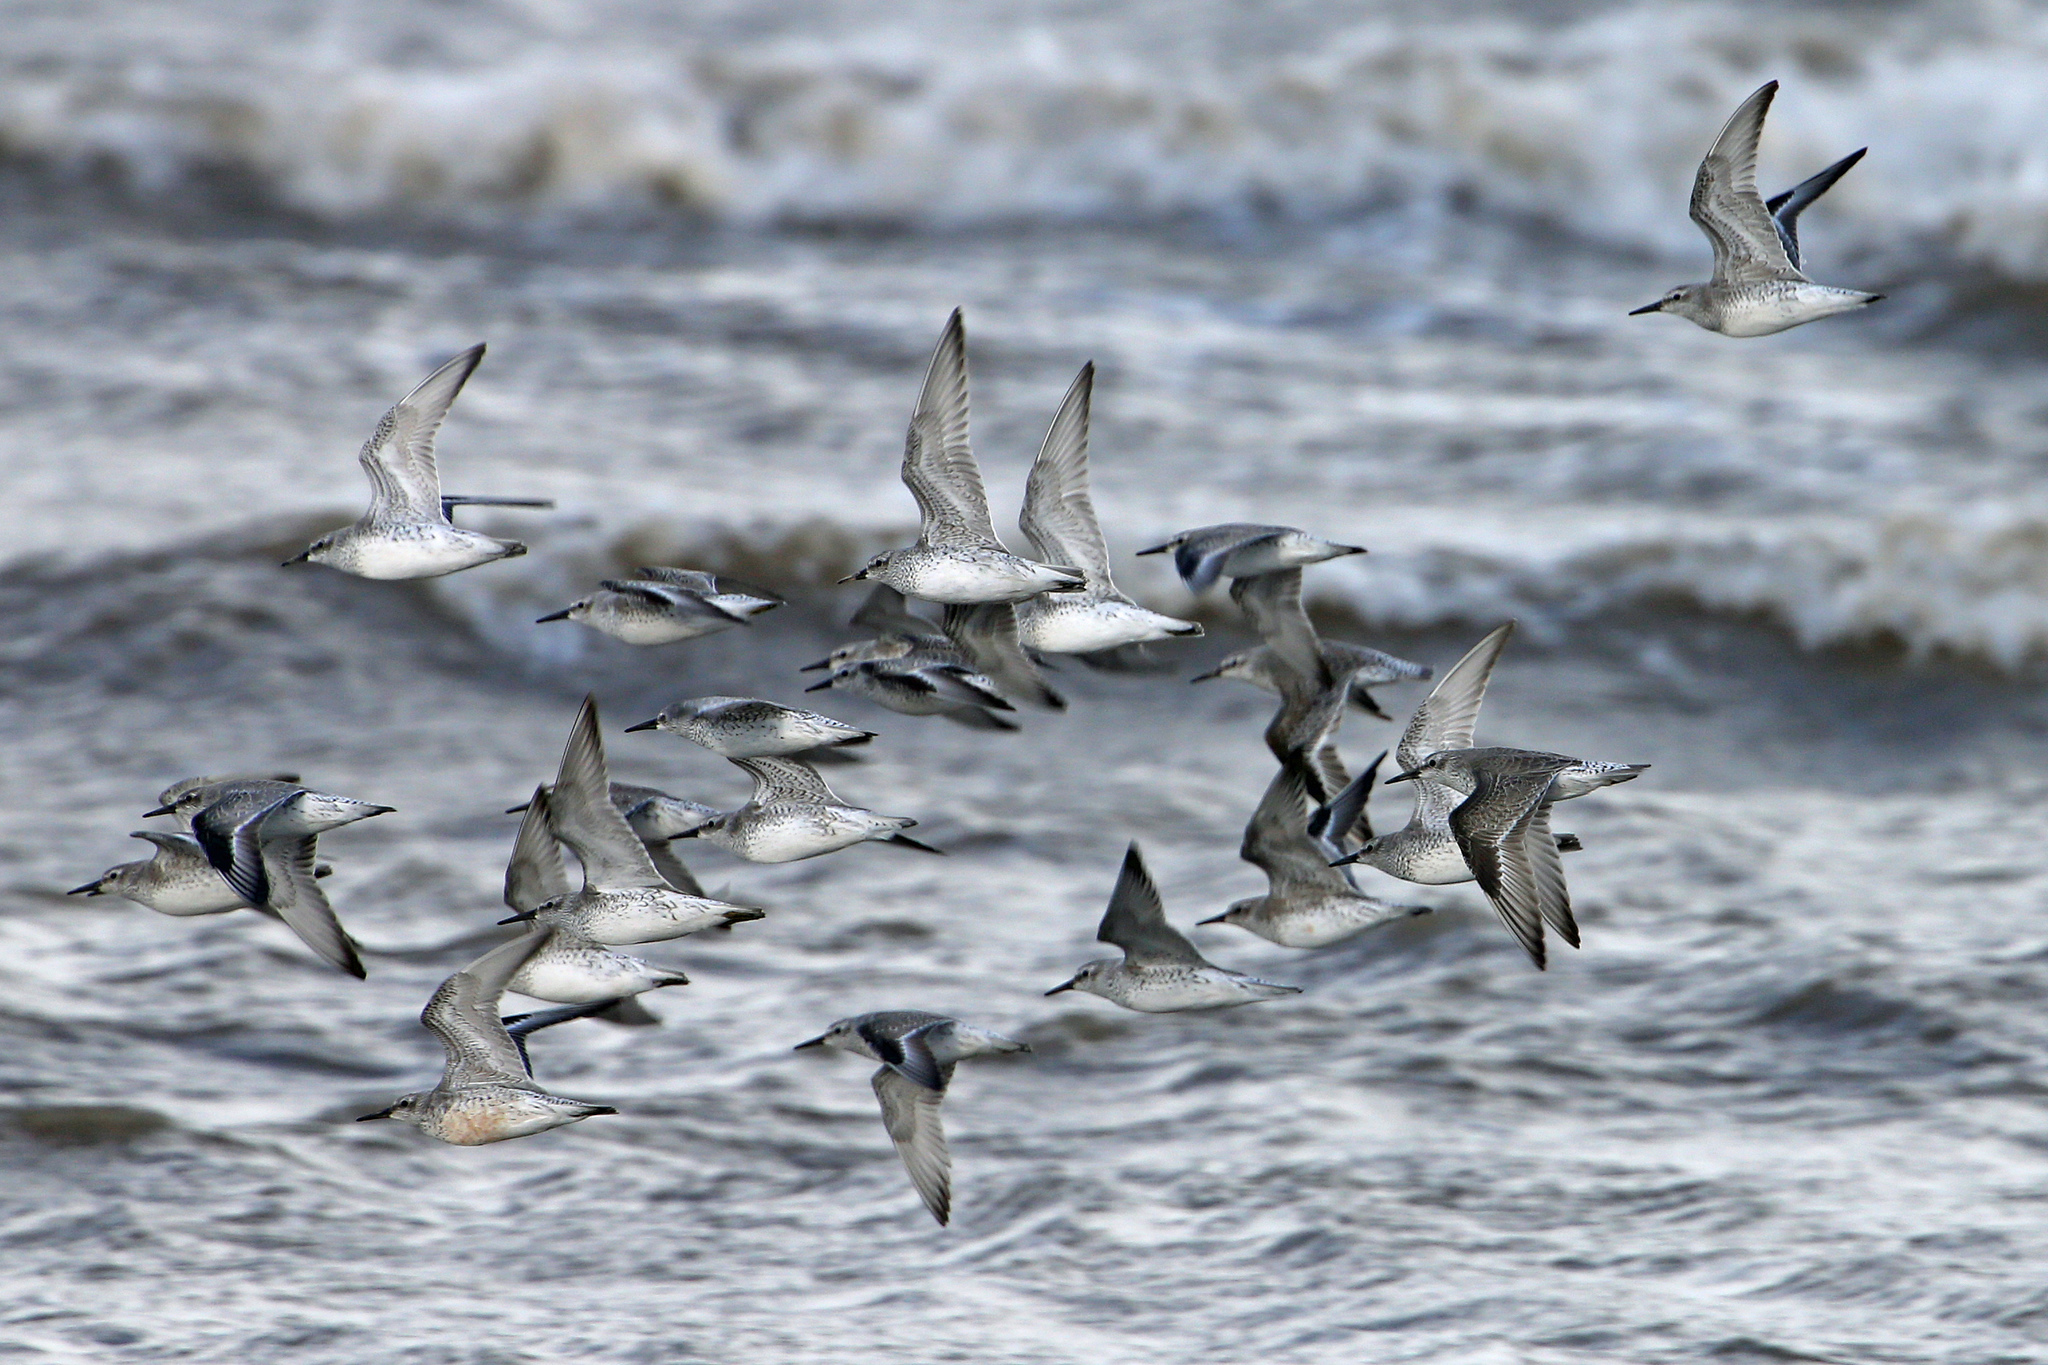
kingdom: Animalia
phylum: Chordata
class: Aves
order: Charadriiformes
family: Scolopacidae
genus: Calidris
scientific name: Calidris canutus
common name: Red knot
